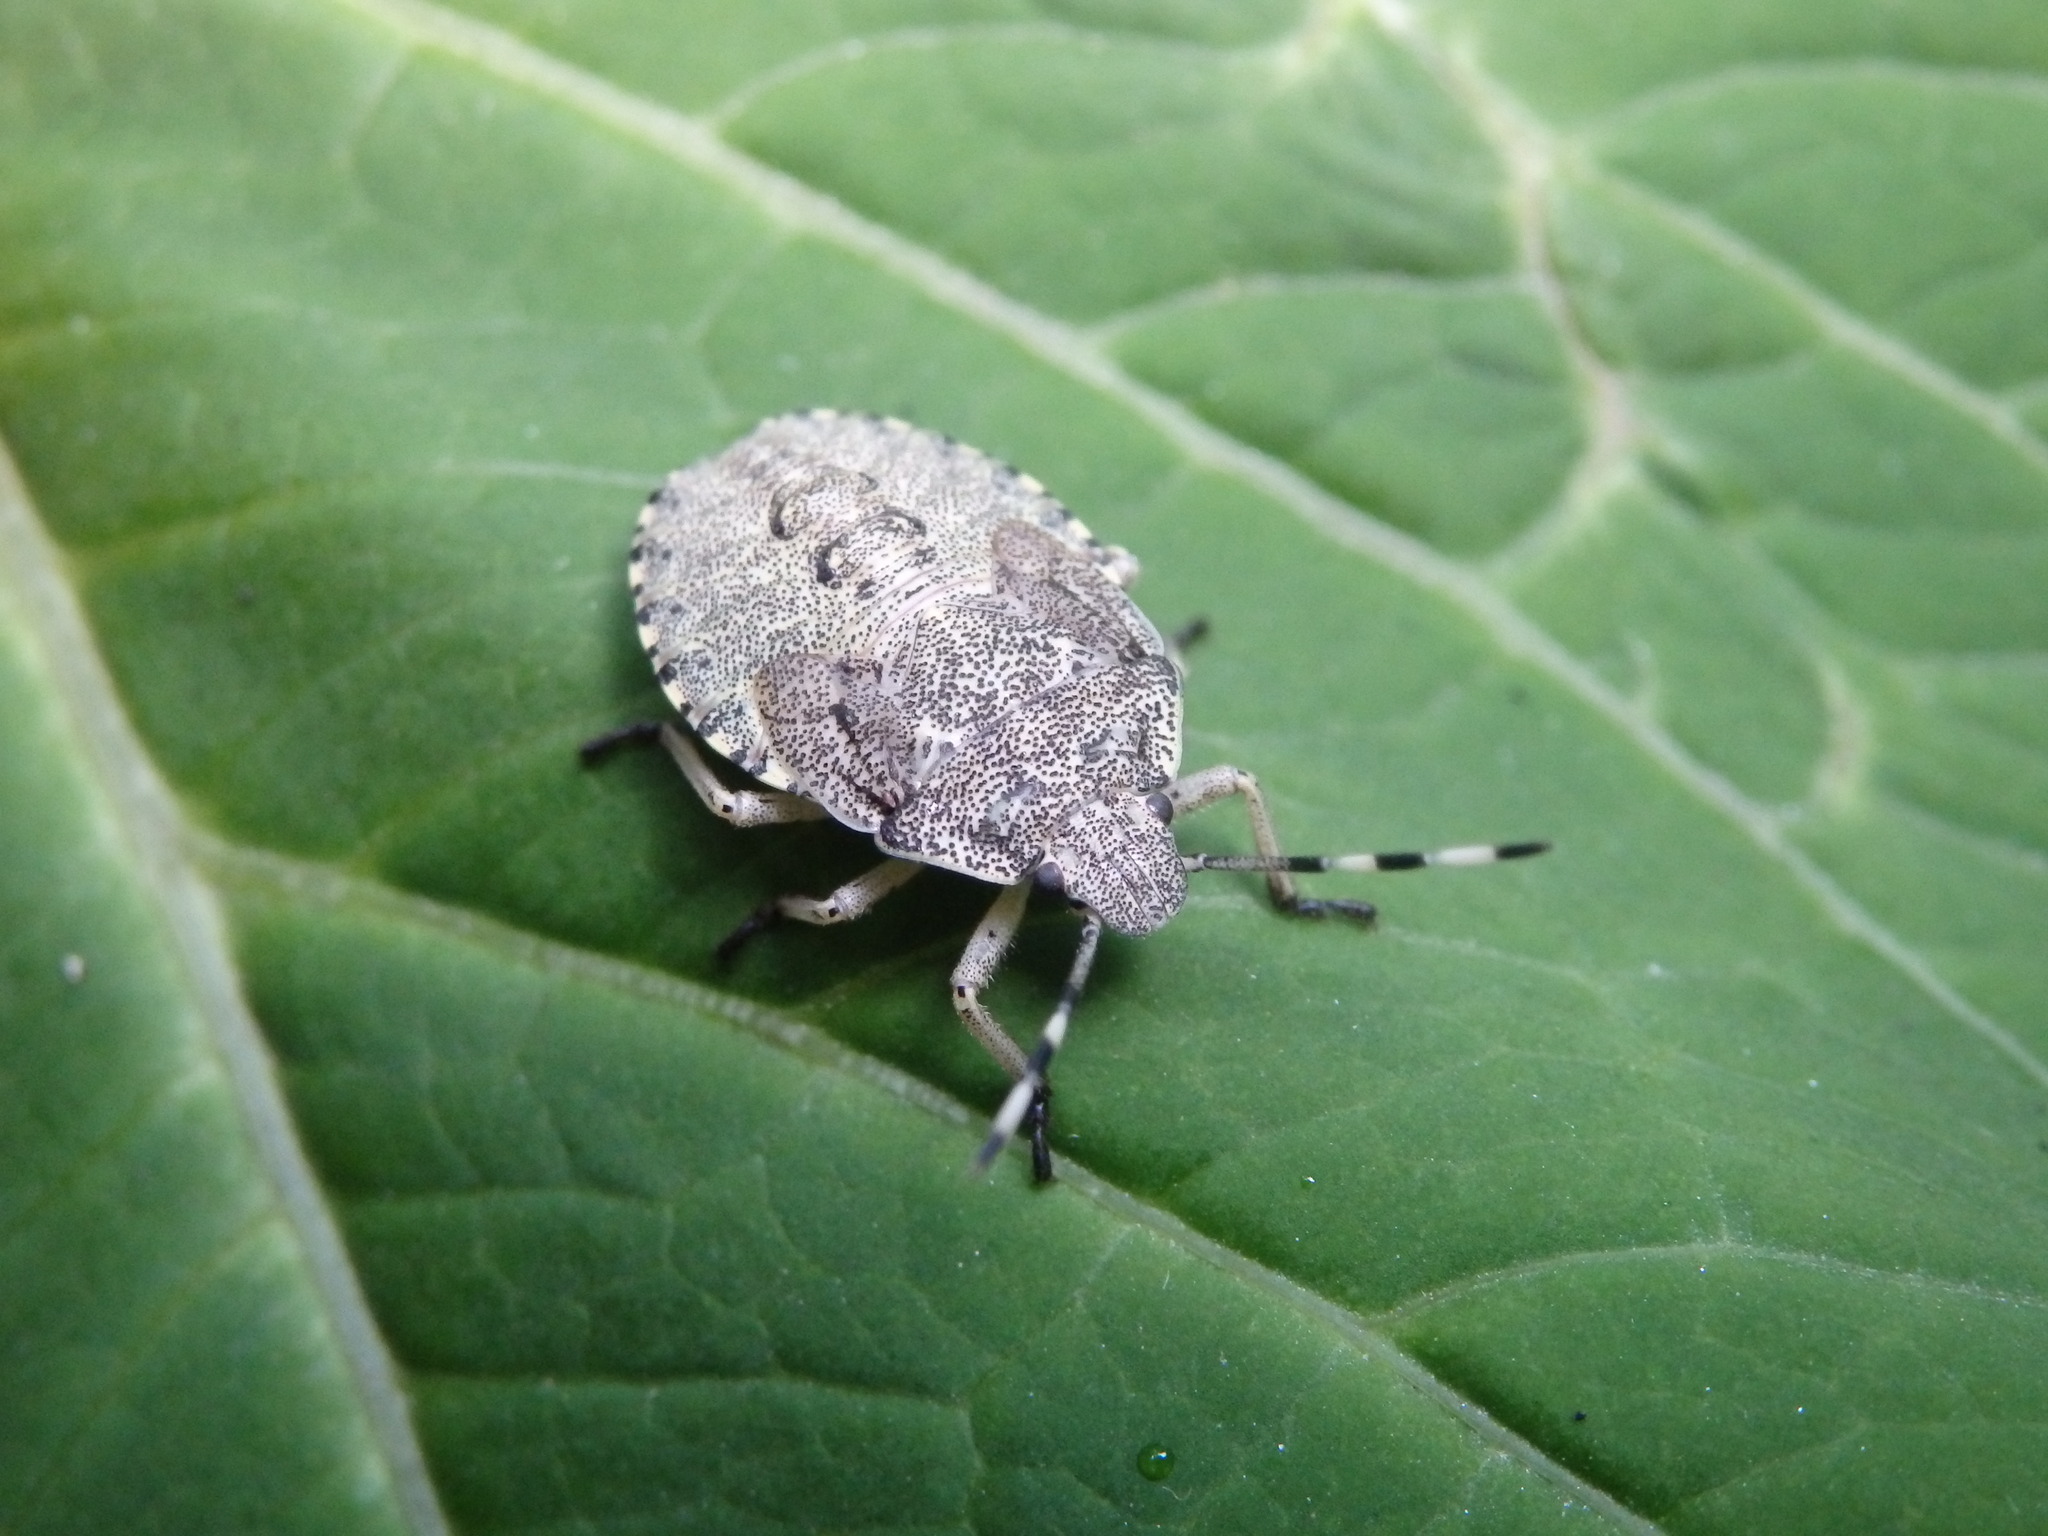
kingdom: Animalia
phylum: Arthropoda
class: Insecta
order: Hemiptera
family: Pentatomidae
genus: Rhaphigaster
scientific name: Rhaphigaster nebulosa
